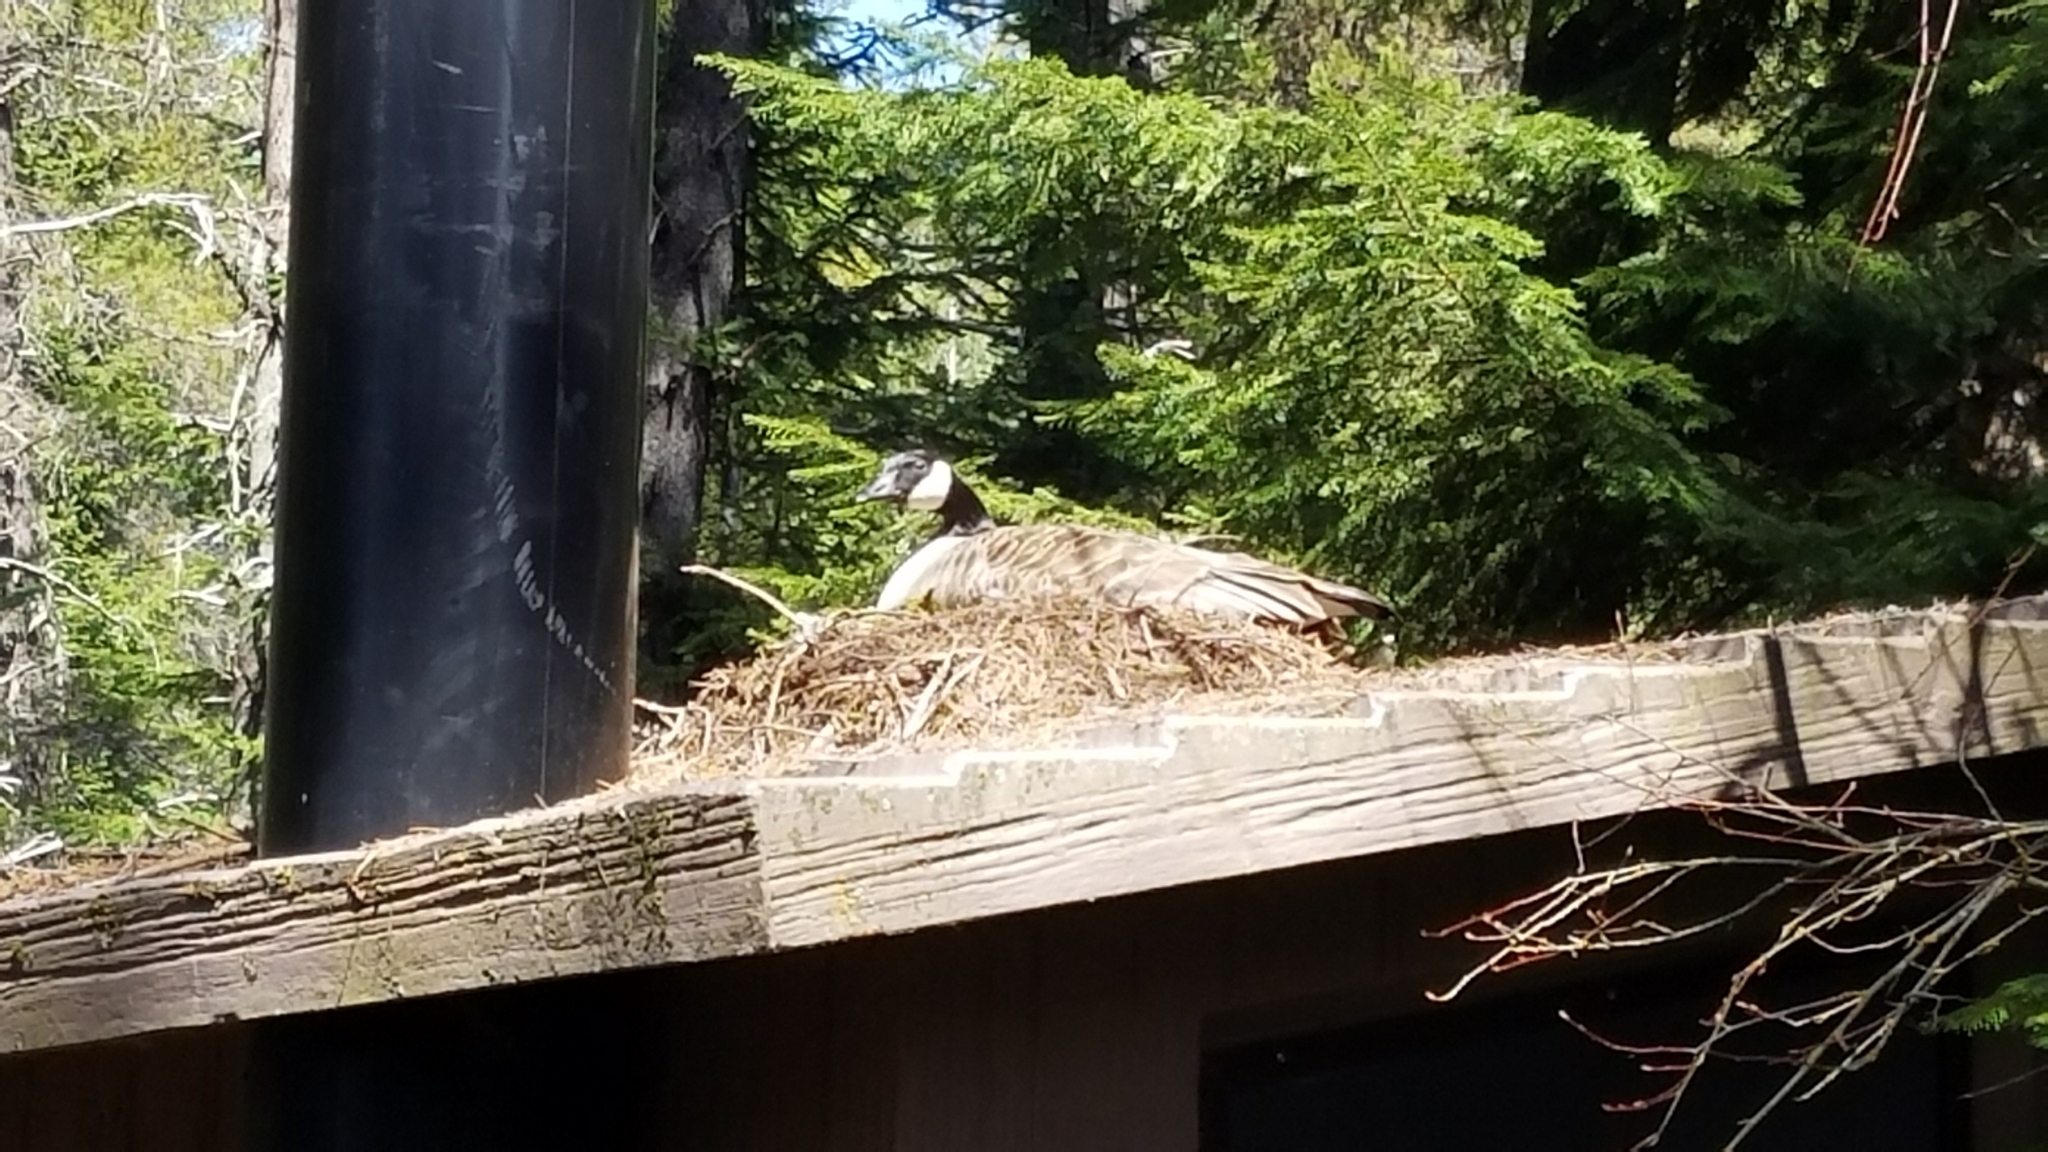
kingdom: Animalia
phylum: Chordata
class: Aves
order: Anseriformes
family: Anatidae
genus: Branta
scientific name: Branta canadensis
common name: Canada goose
